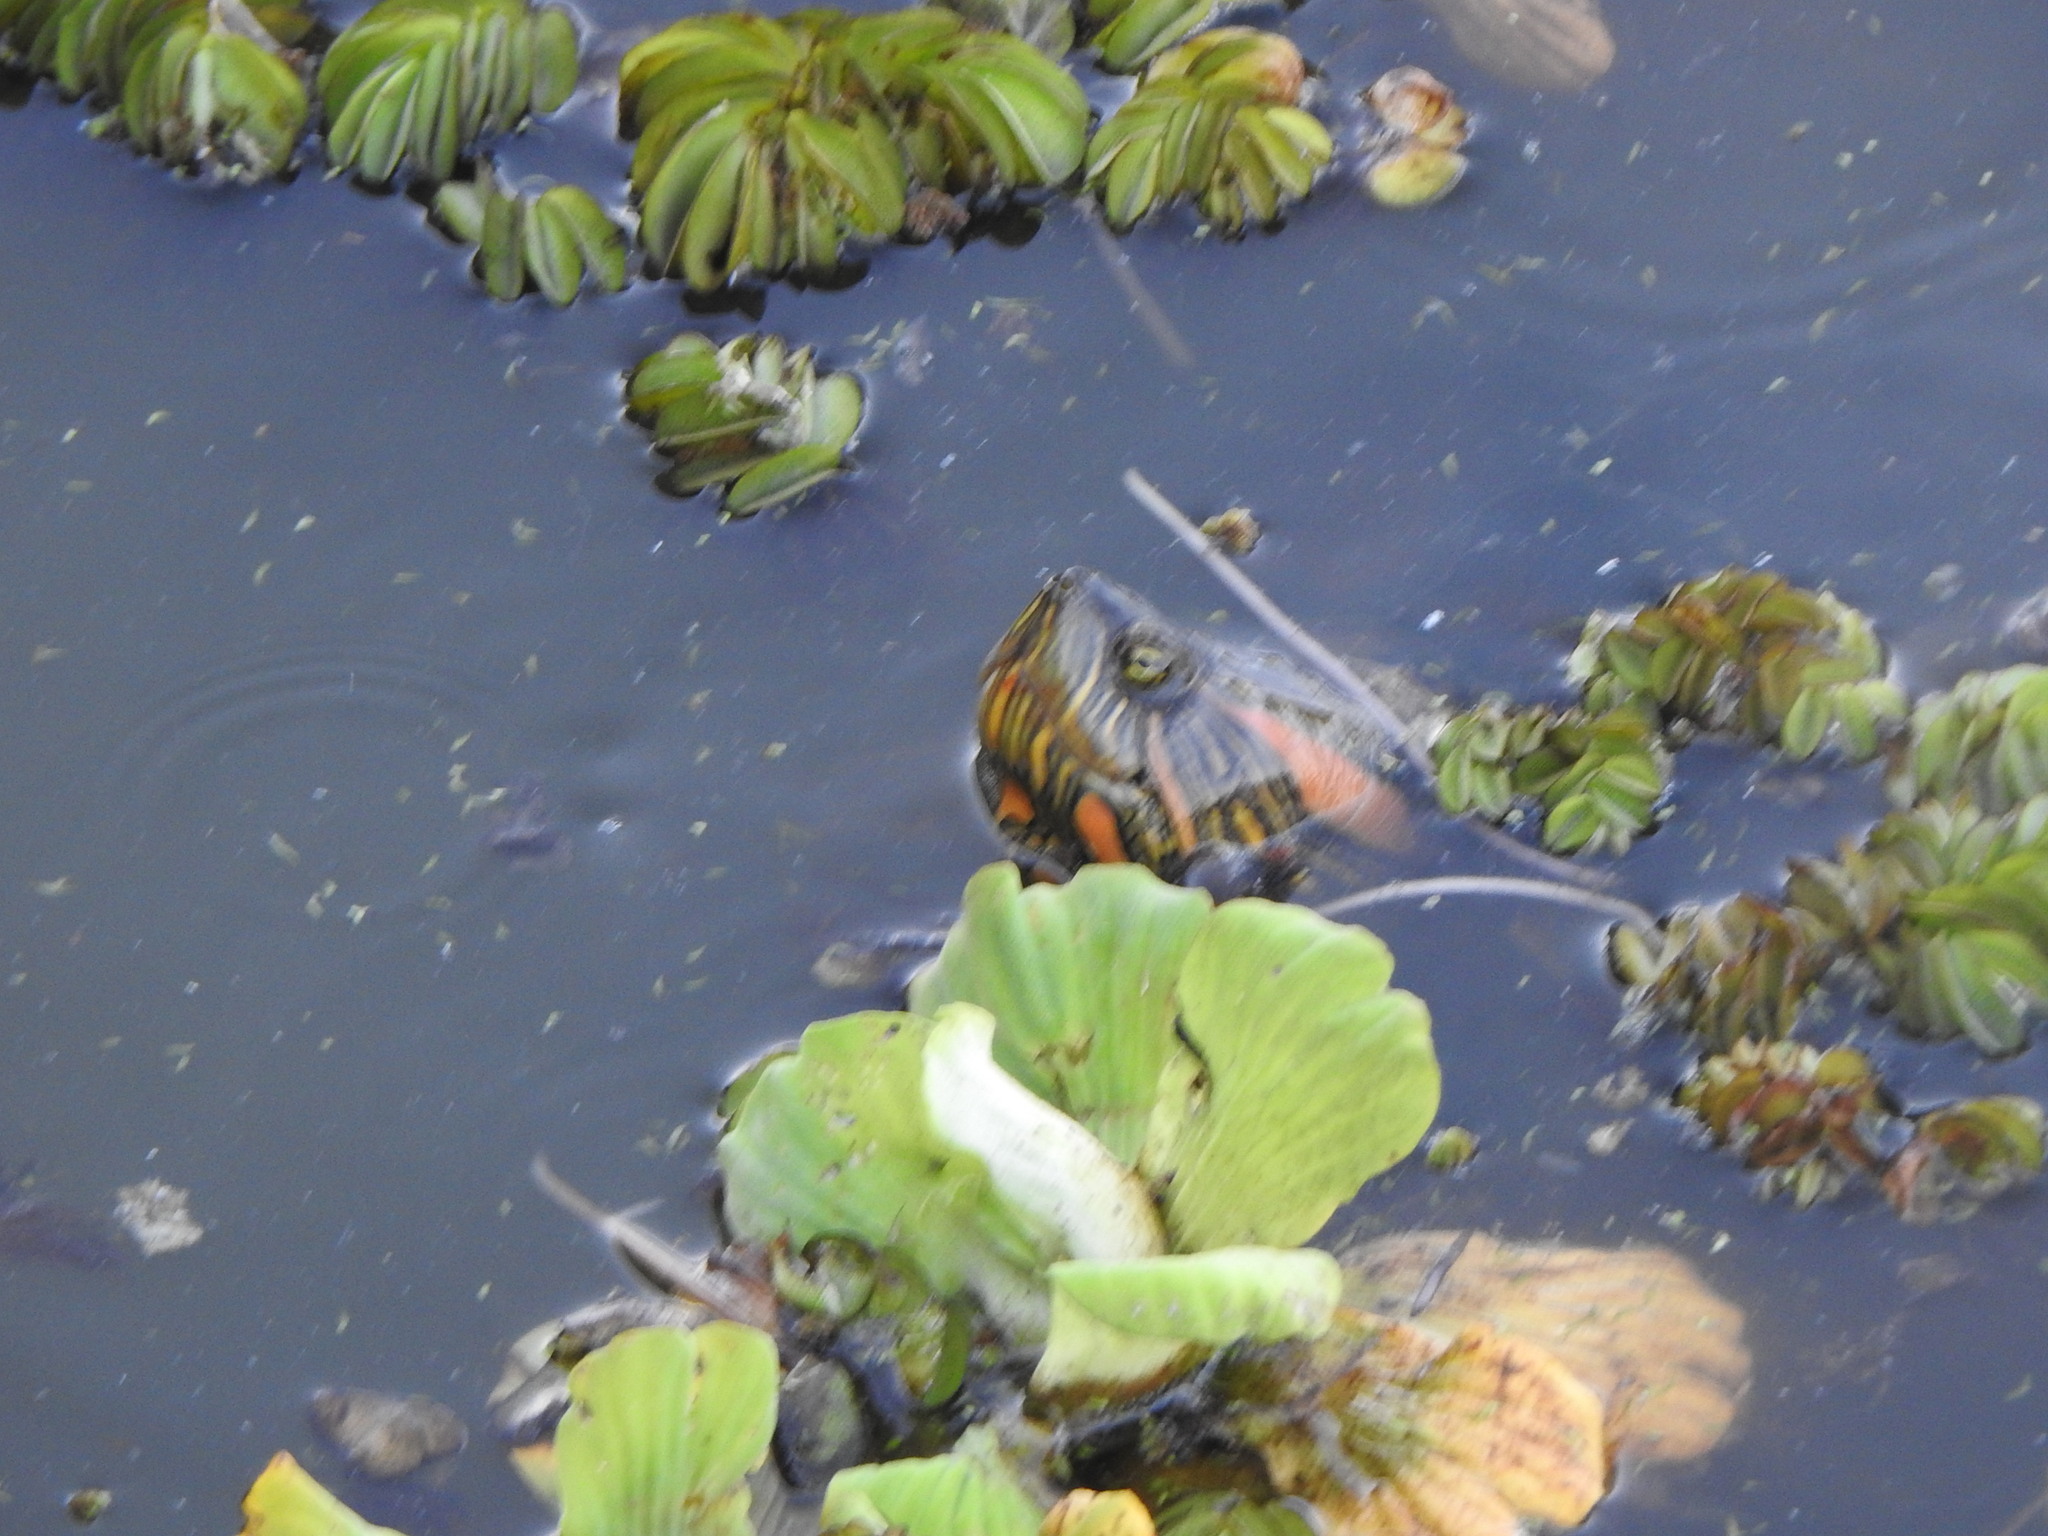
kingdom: Animalia
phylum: Chordata
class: Testudines
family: Emydidae
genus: Trachemys
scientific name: Trachemys dorbigni
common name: Black-bellied slider
